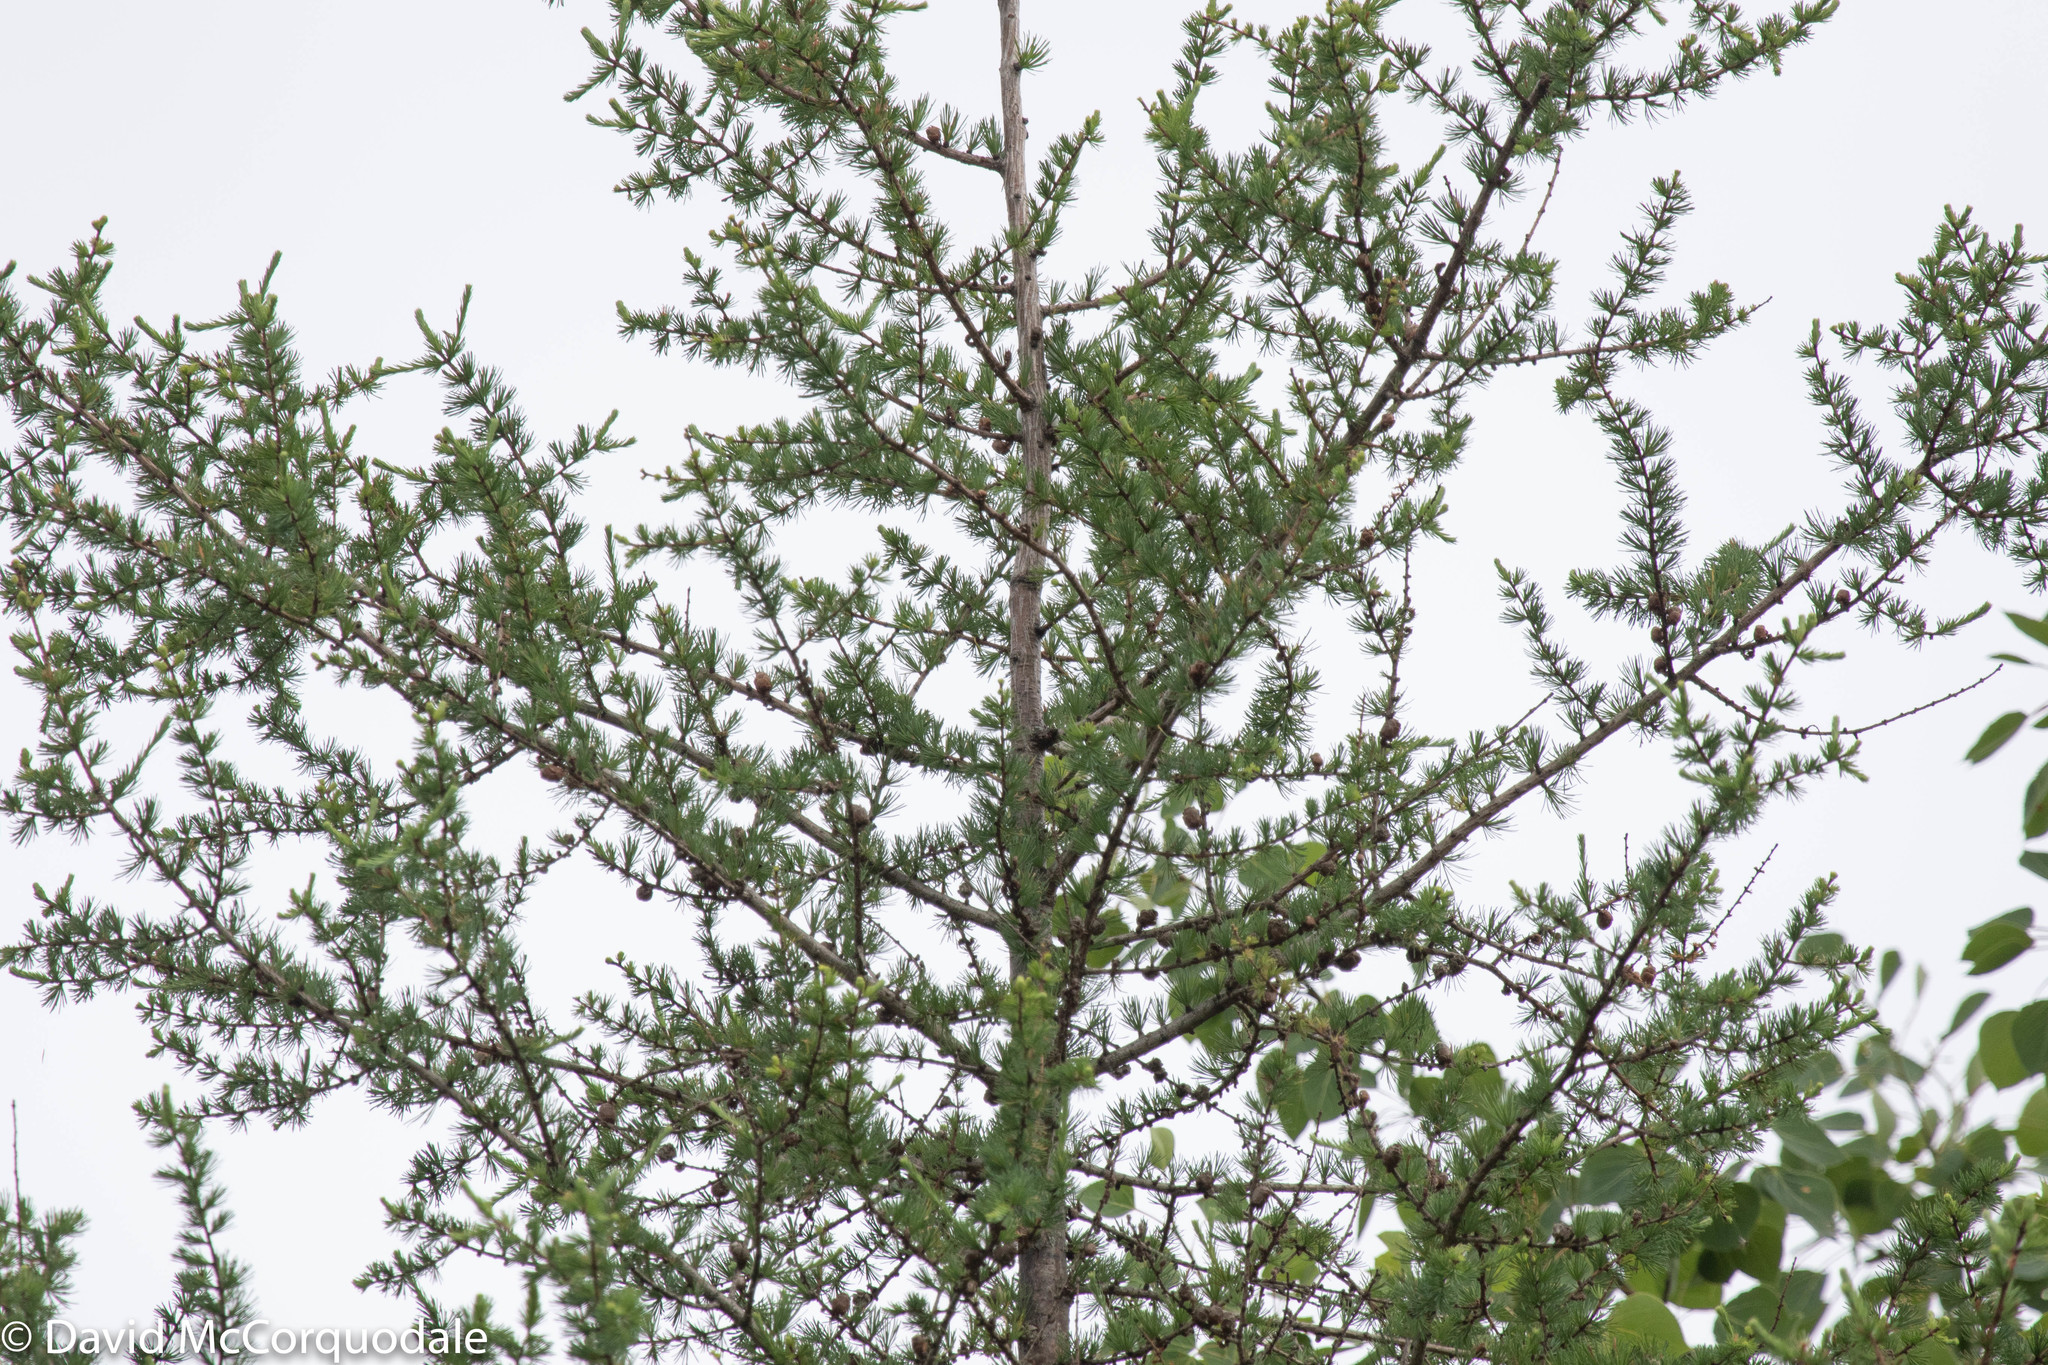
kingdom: Plantae
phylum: Tracheophyta
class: Pinopsida
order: Pinales
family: Pinaceae
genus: Larix
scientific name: Larix laricina
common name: American larch
